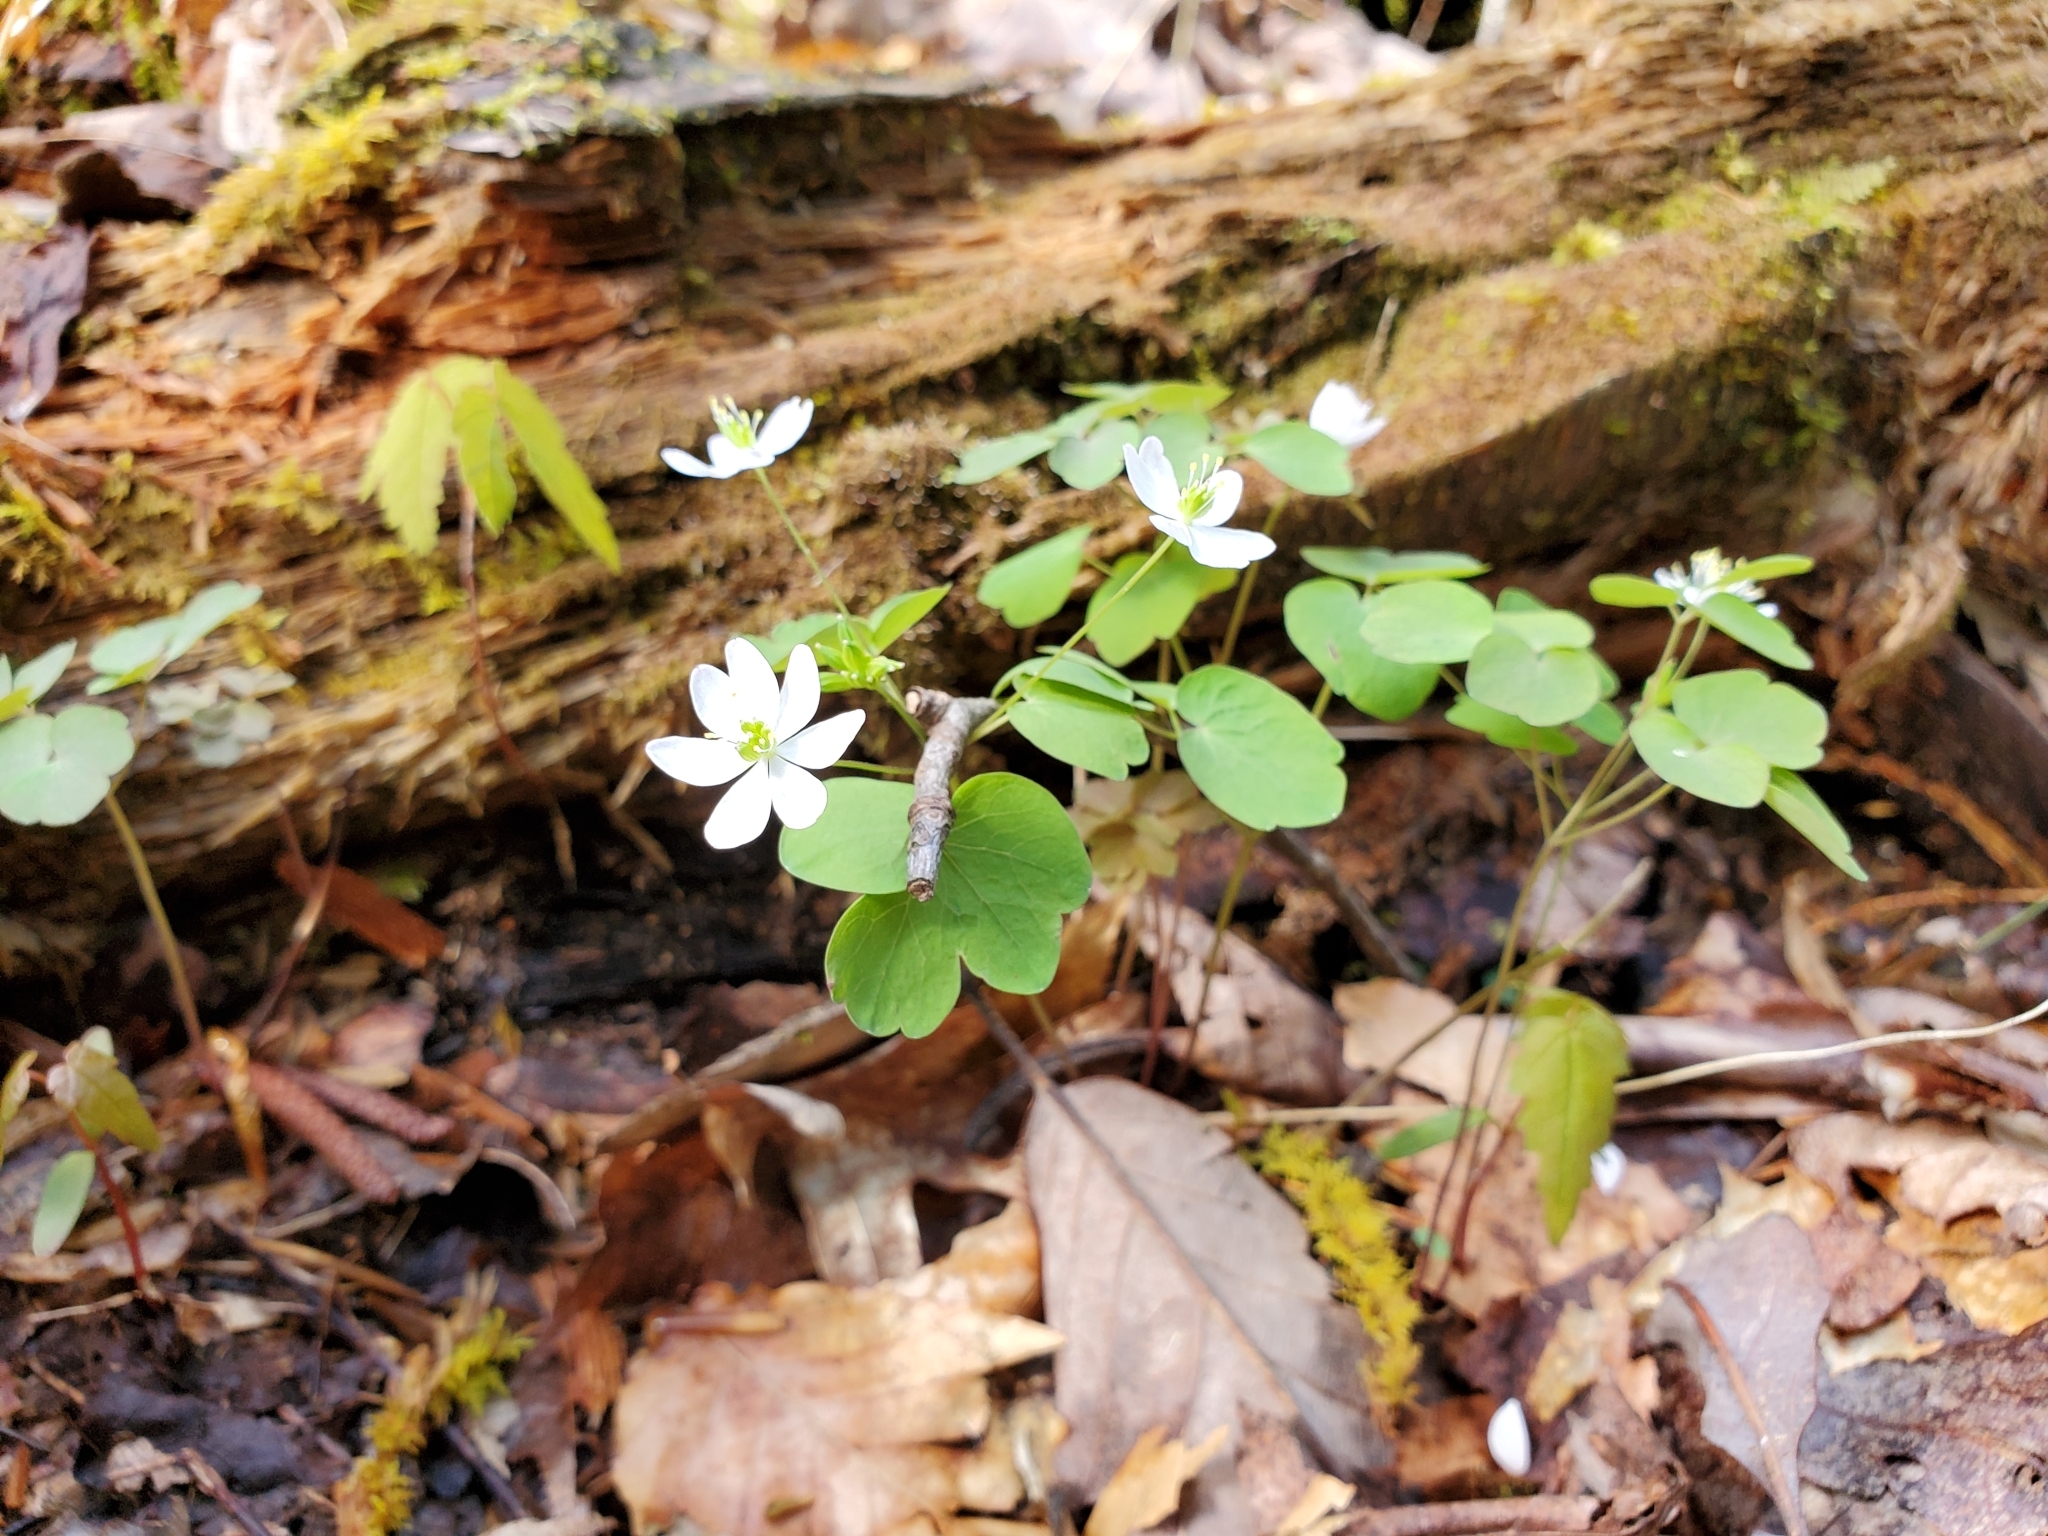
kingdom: Plantae
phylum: Tracheophyta
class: Magnoliopsida
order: Ranunculales
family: Ranunculaceae
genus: Thalictrum
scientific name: Thalictrum thalictroides
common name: Rue-anemone
